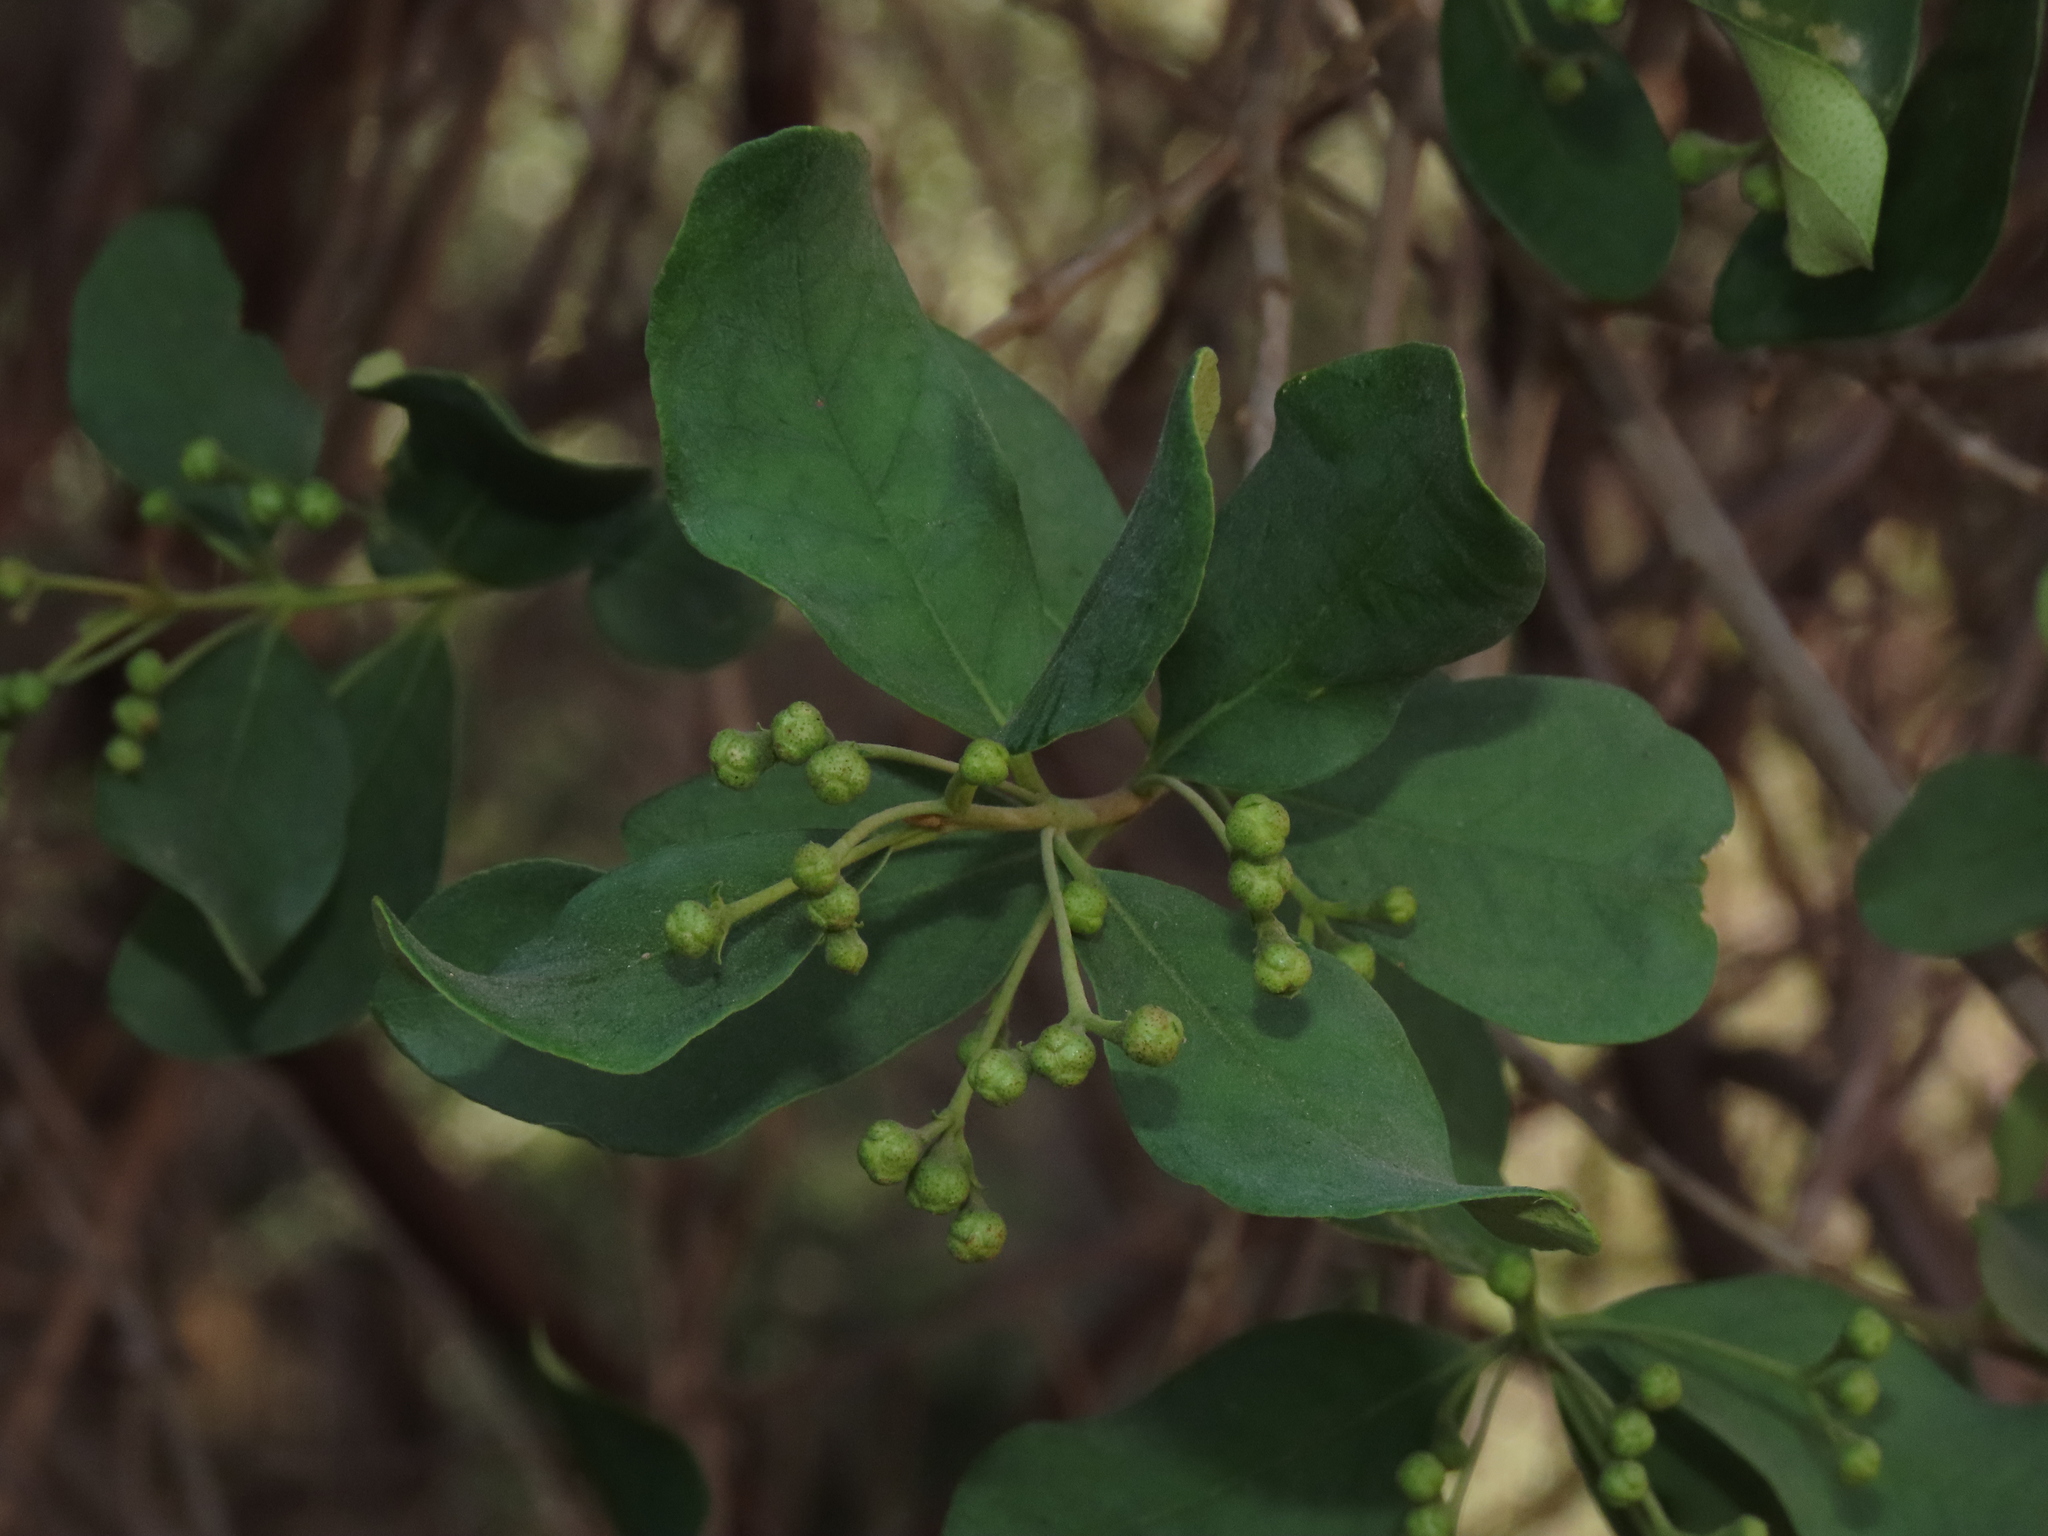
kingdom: Plantae
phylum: Tracheophyta
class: Magnoliopsida
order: Myrtales
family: Myrtaceae
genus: Myrceugenia
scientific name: Myrceugenia exsucca
